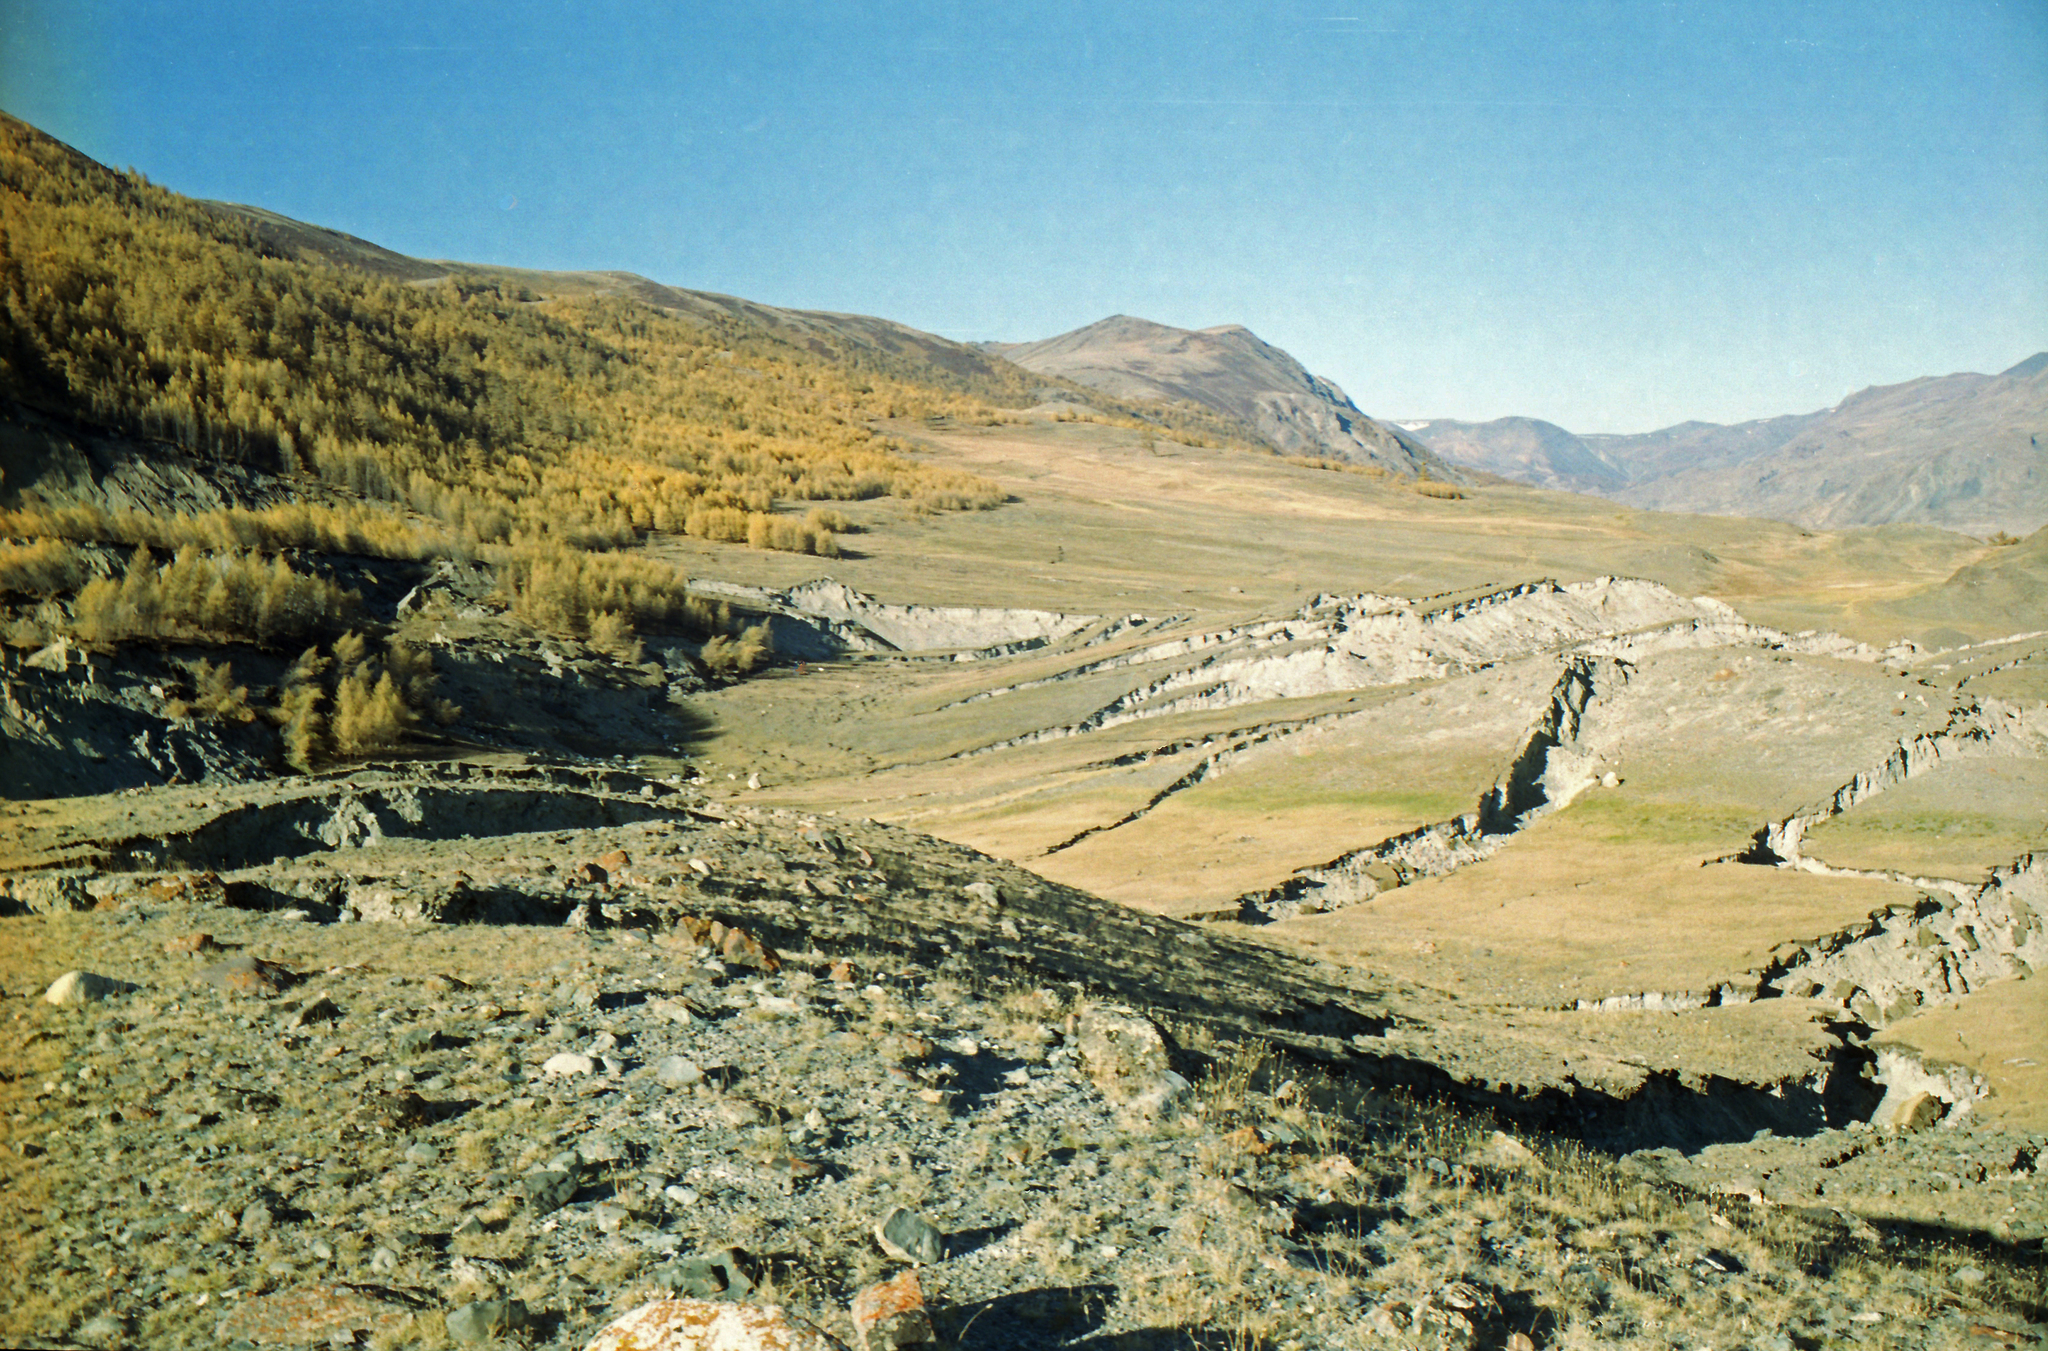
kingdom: Plantae
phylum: Tracheophyta
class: Pinopsida
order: Pinales
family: Pinaceae
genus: Larix
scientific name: Larix sibirica
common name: Siberian larch
